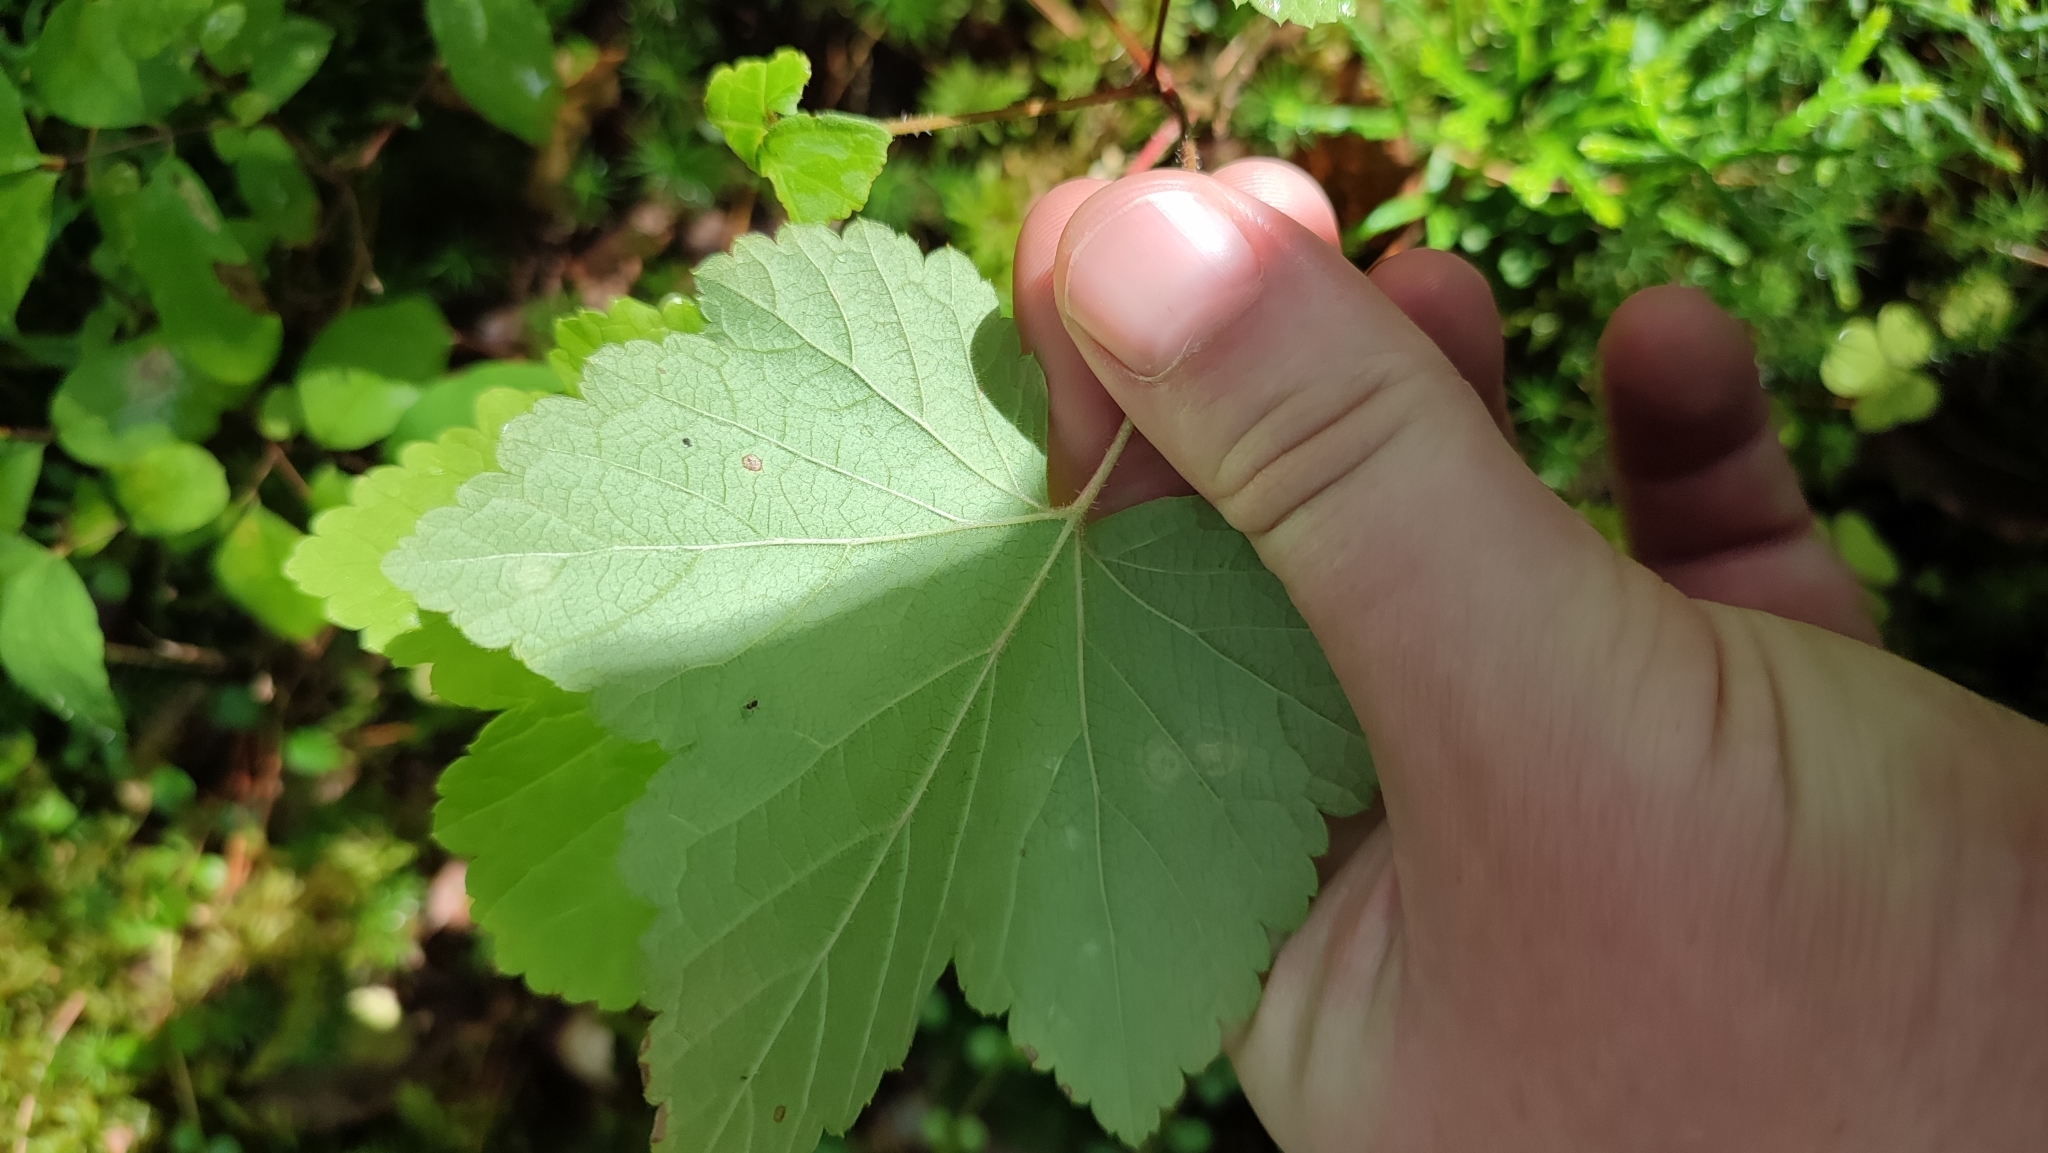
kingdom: Plantae
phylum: Tracheophyta
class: Magnoliopsida
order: Saxifragales
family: Grossulariaceae
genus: Ribes
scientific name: Ribes spicatum
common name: Downy currant
